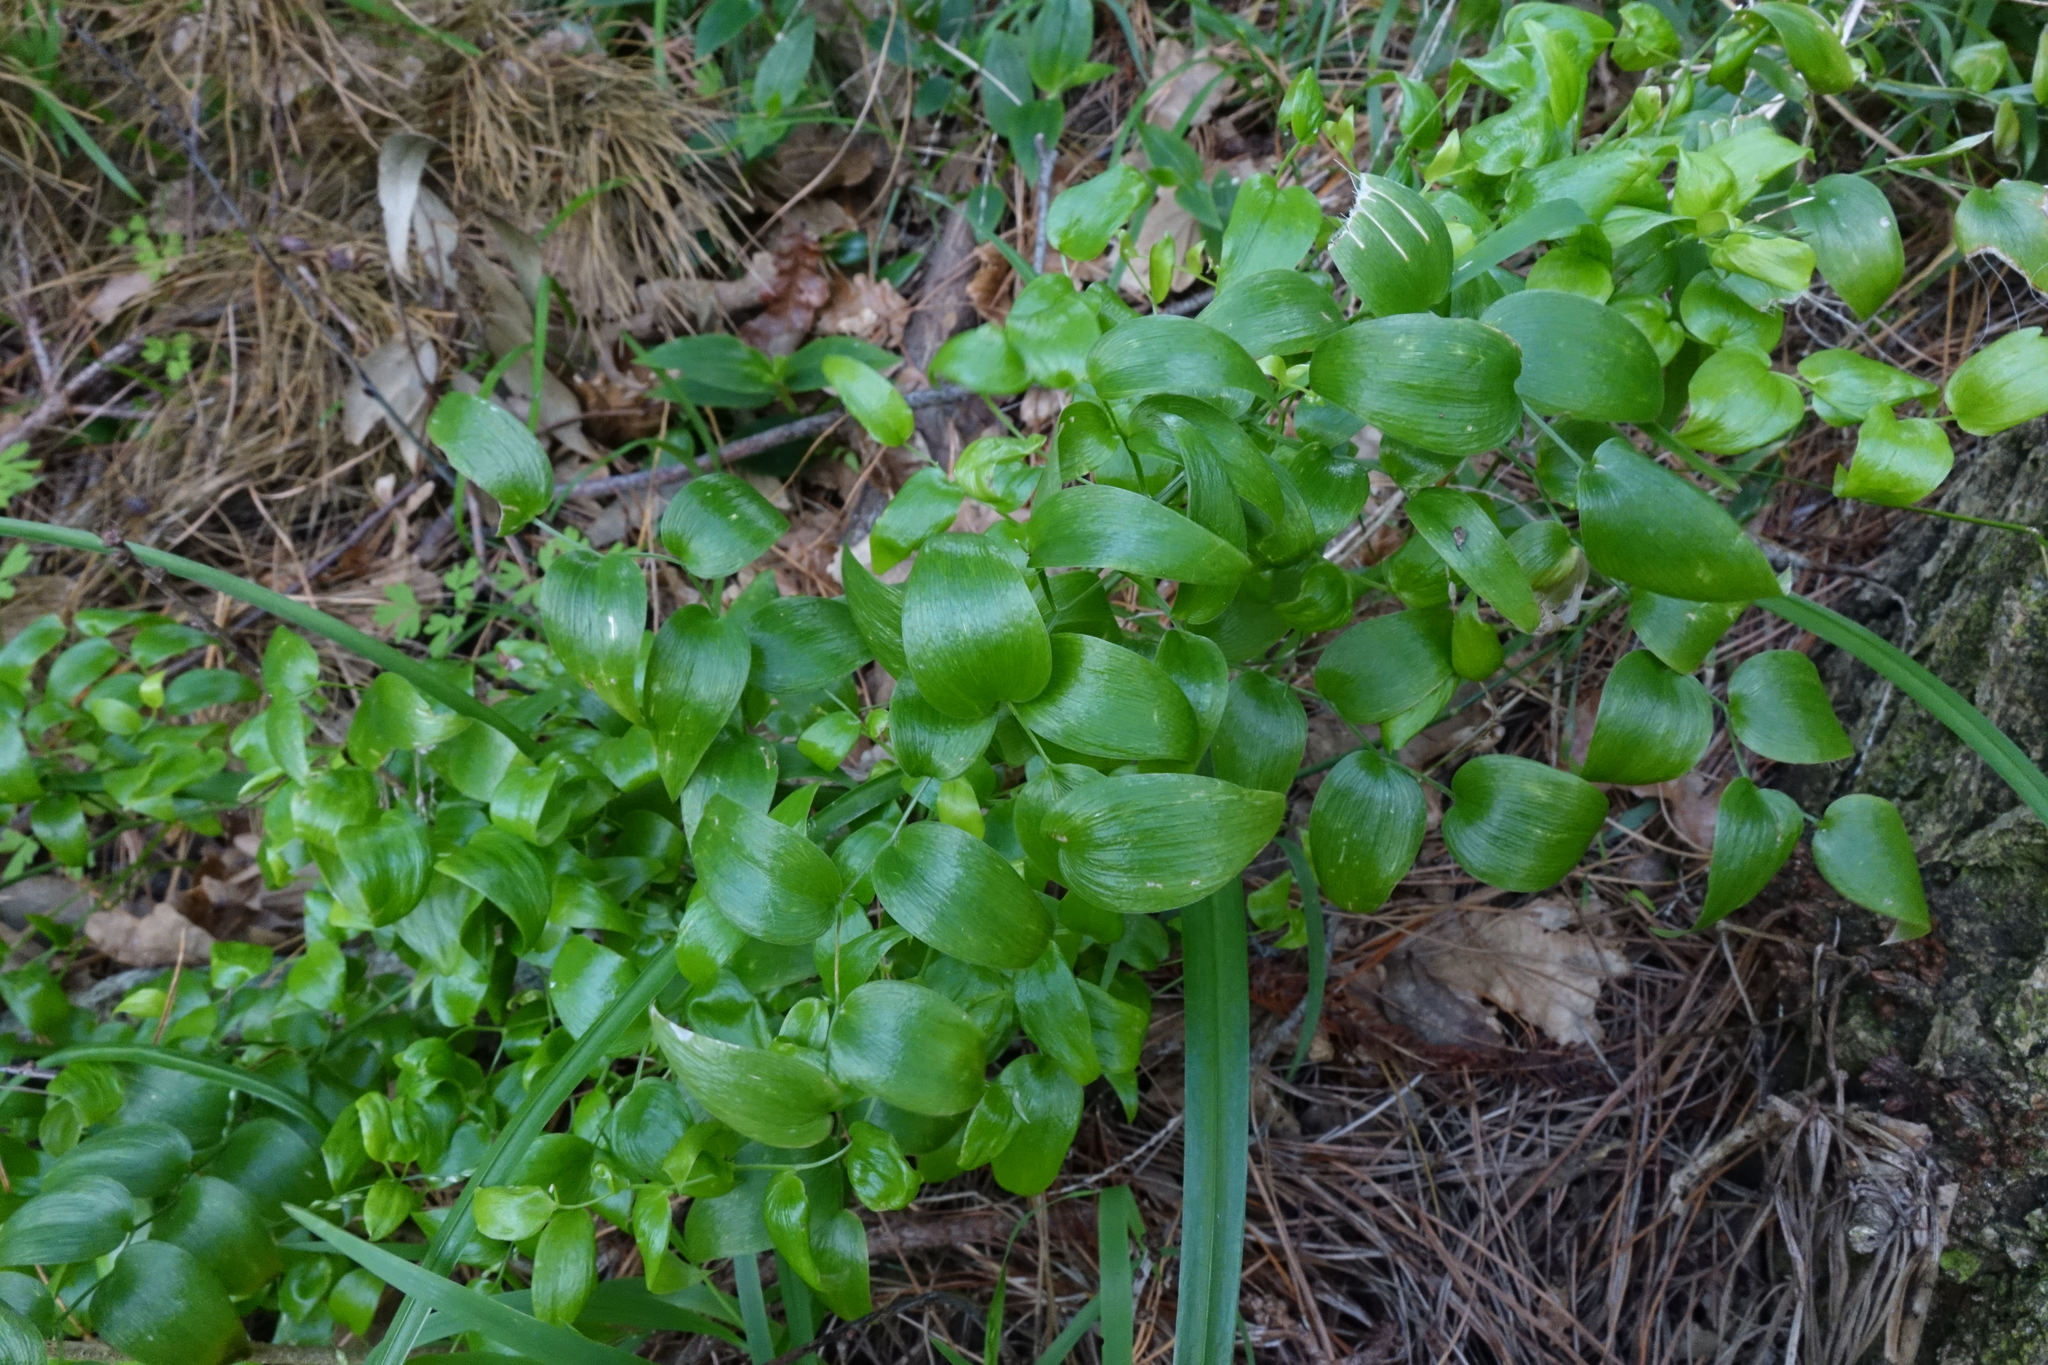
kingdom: Plantae
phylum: Tracheophyta
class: Liliopsida
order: Asparagales
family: Asparagaceae
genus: Asparagus
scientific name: Asparagus asparagoides
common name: African asparagus fern
